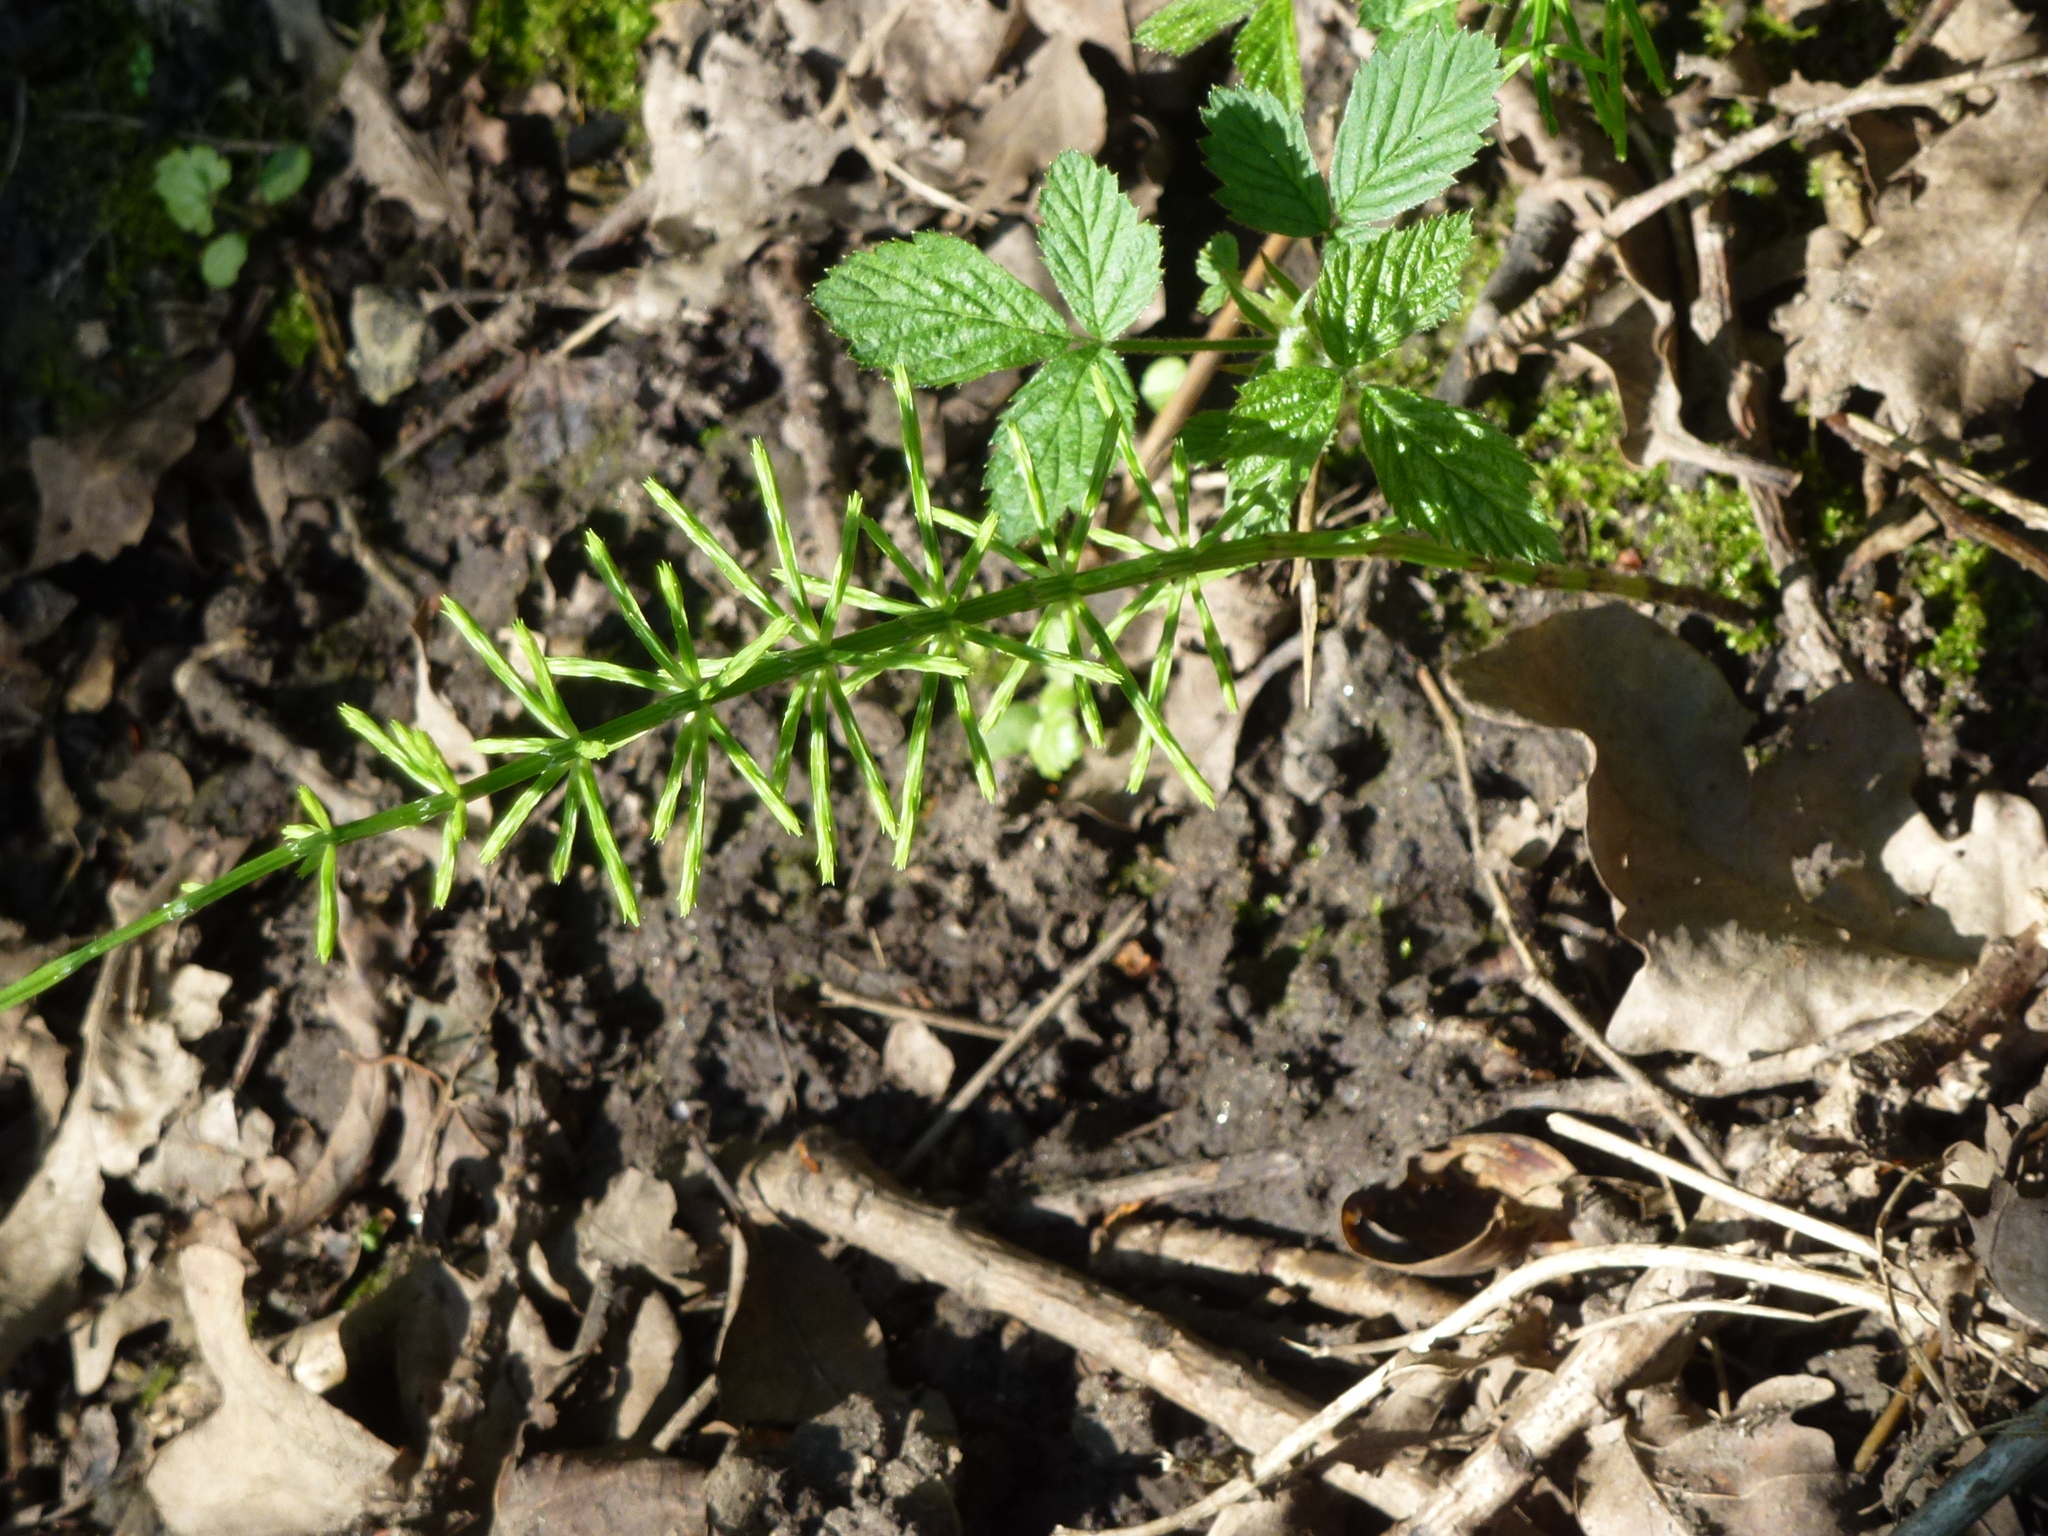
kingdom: Plantae
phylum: Tracheophyta
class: Polypodiopsida
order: Equisetales
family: Equisetaceae
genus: Equisetum
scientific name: Equisetum arvense
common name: Field horsetail
